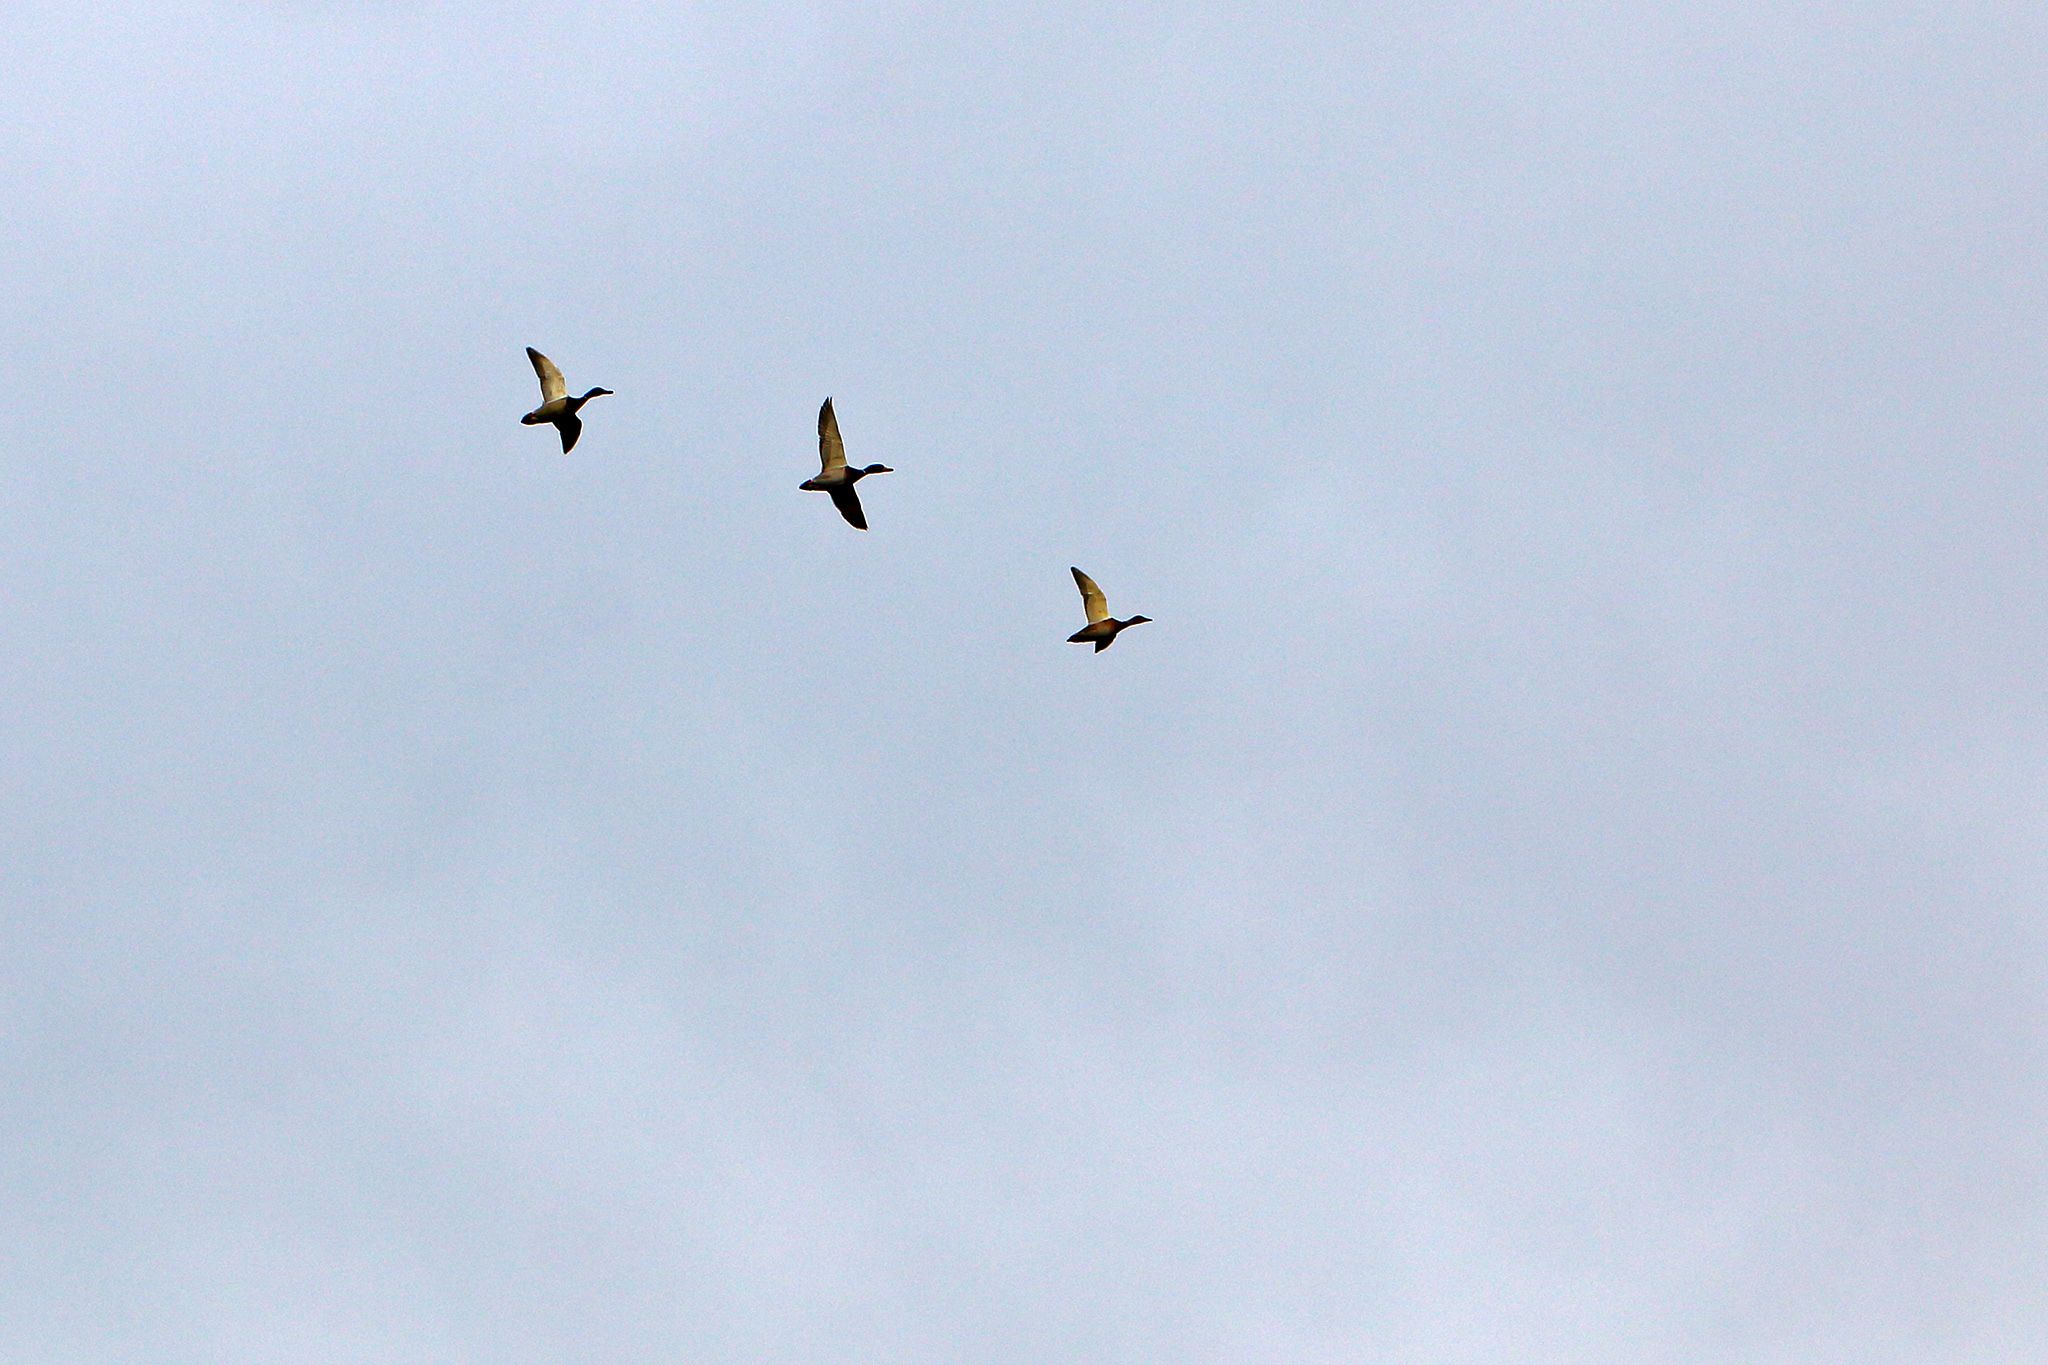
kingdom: Animalia
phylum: Chordata
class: Aves
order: Anseriformes
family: Anatidae
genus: Anas
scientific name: Anas platyrhynchos
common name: Mallard
